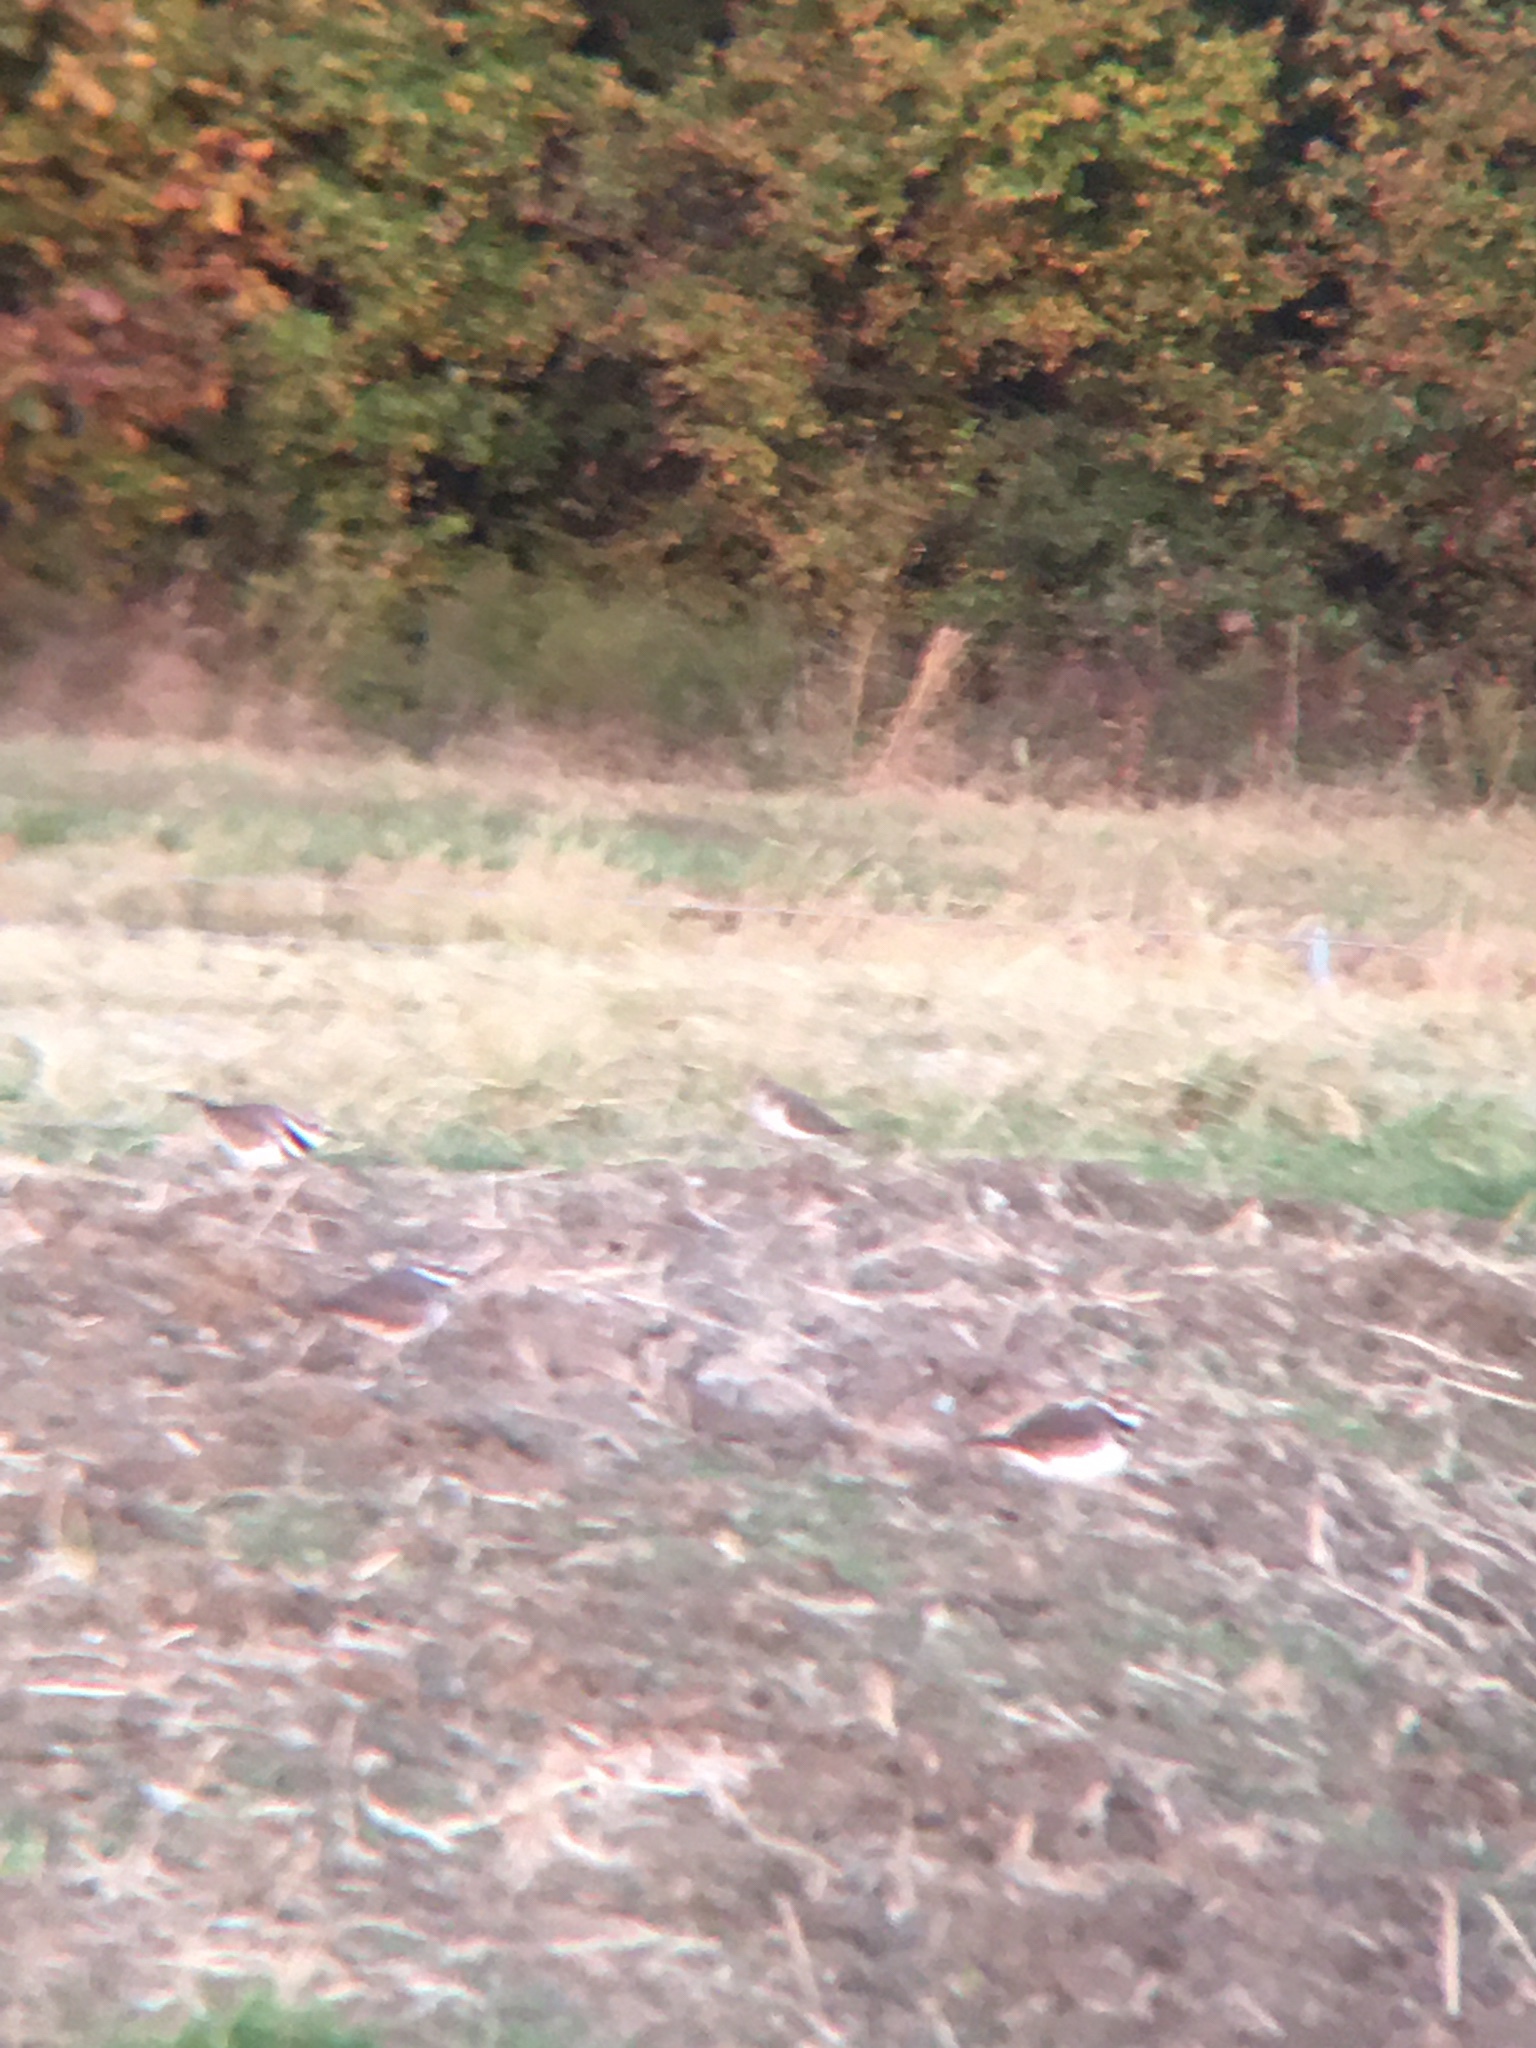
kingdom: Animalia
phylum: Chordata
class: Aves
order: Charadriiformes
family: Charadriidae
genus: Charadrius
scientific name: Charadrius vociferus
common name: Killdeer
